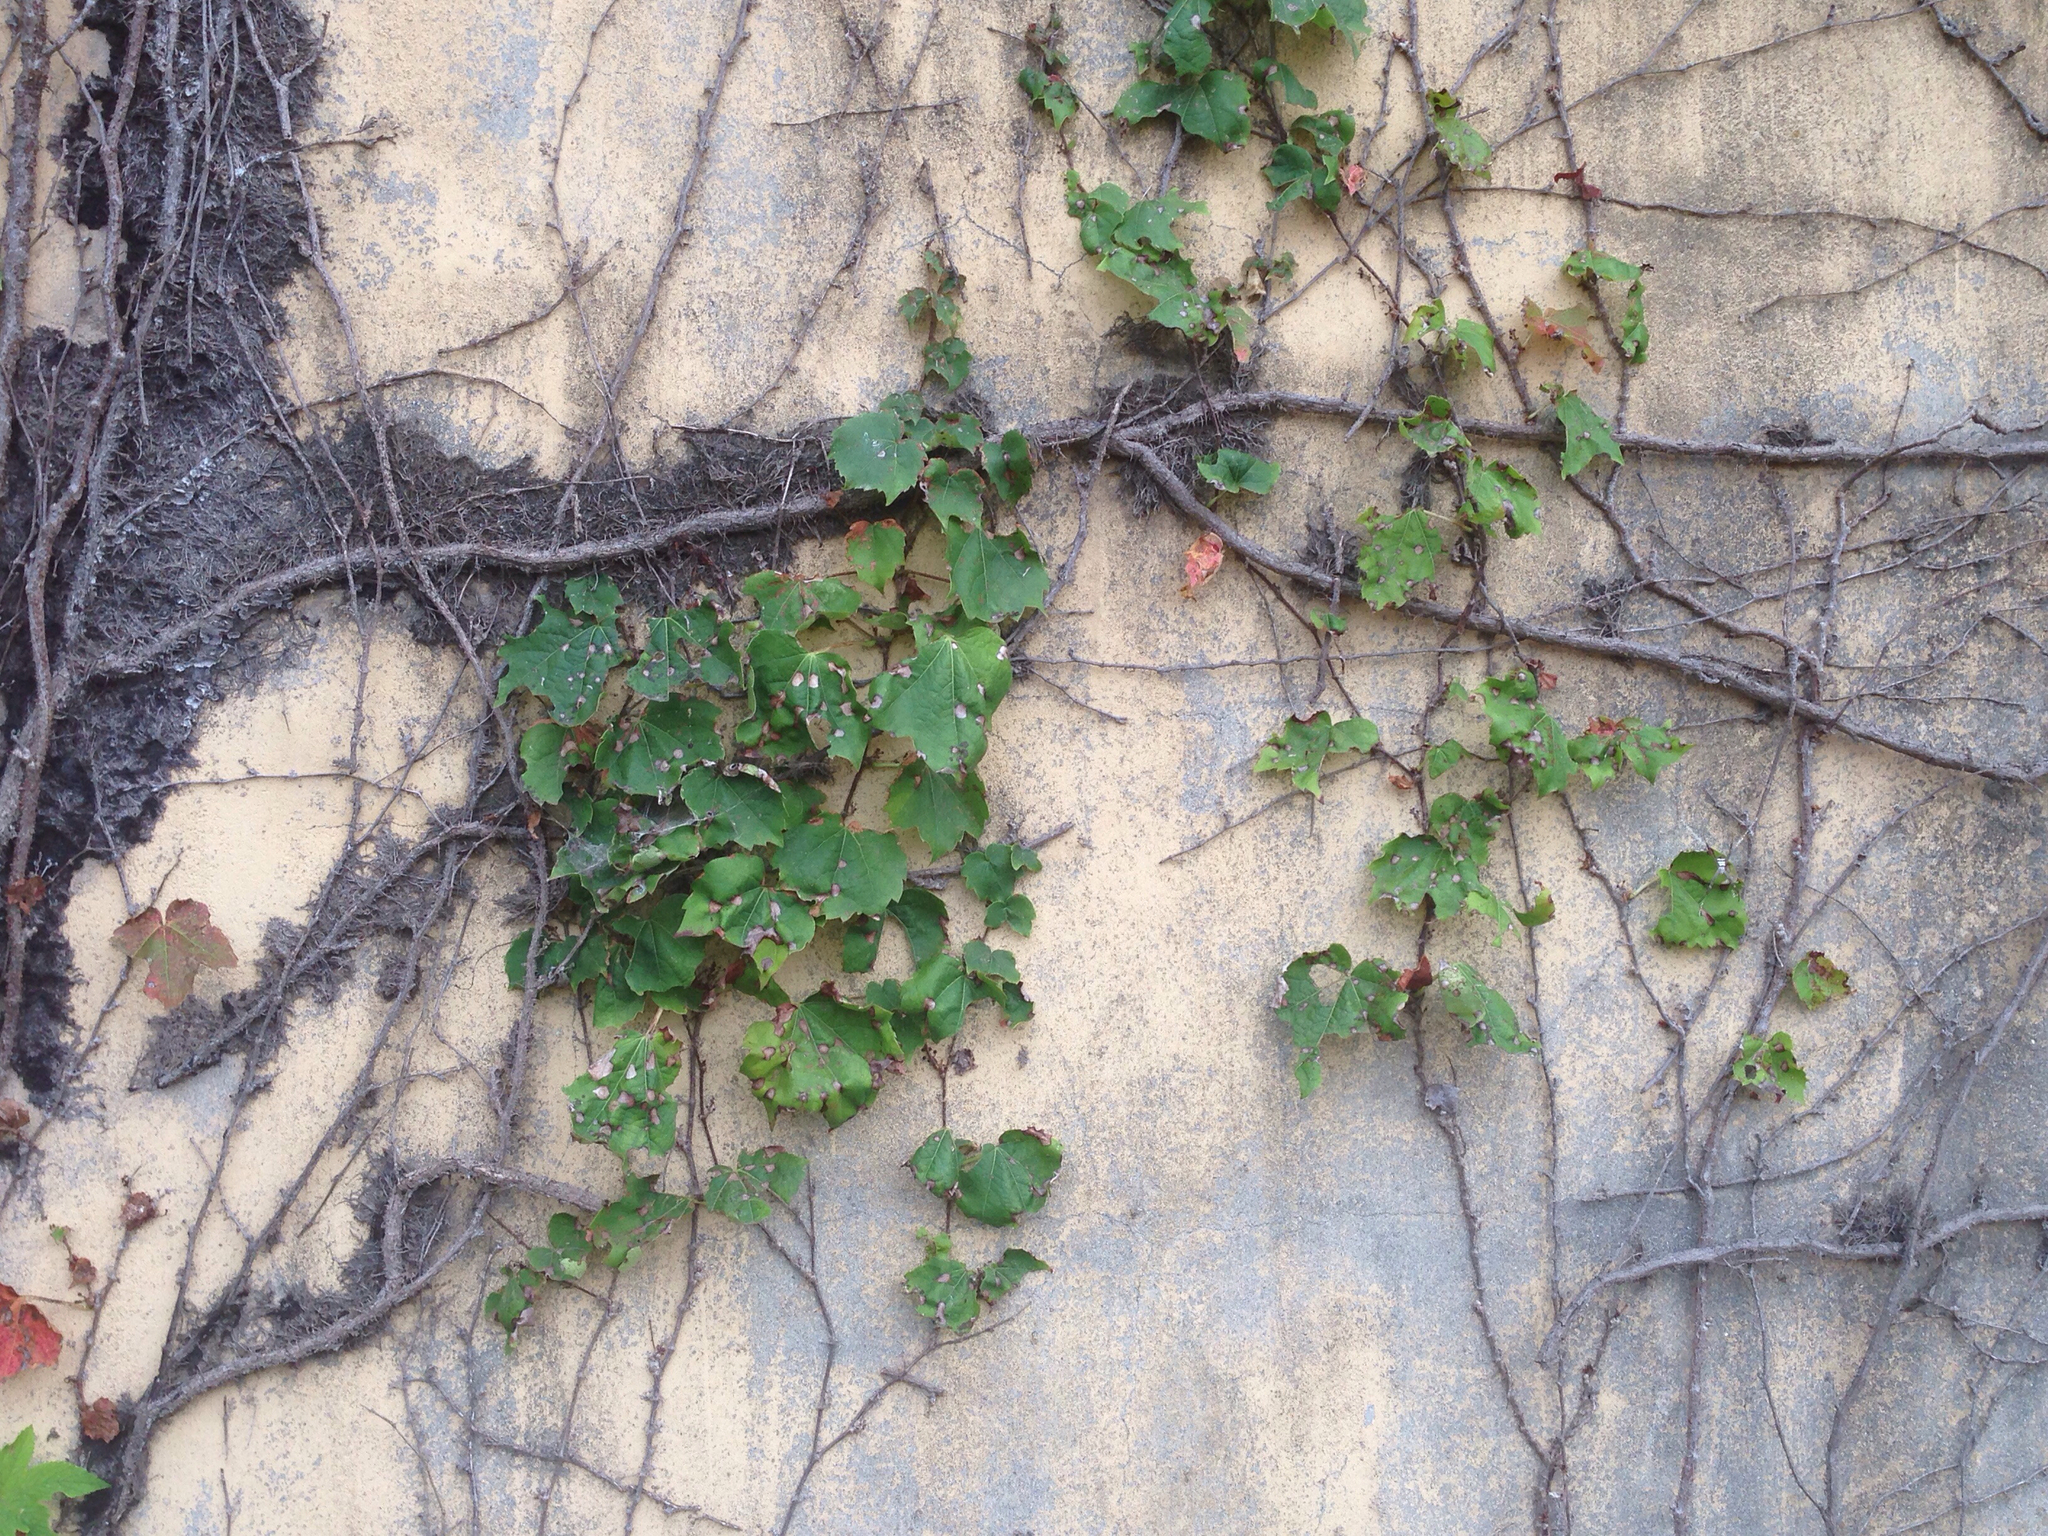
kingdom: Plantae
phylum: Tracheophyta
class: Magnoliopsida
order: Vitales
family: Vitaceae
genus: Parthenocissus
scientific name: Parthenocissus tricuspidata
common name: Boston ivy
